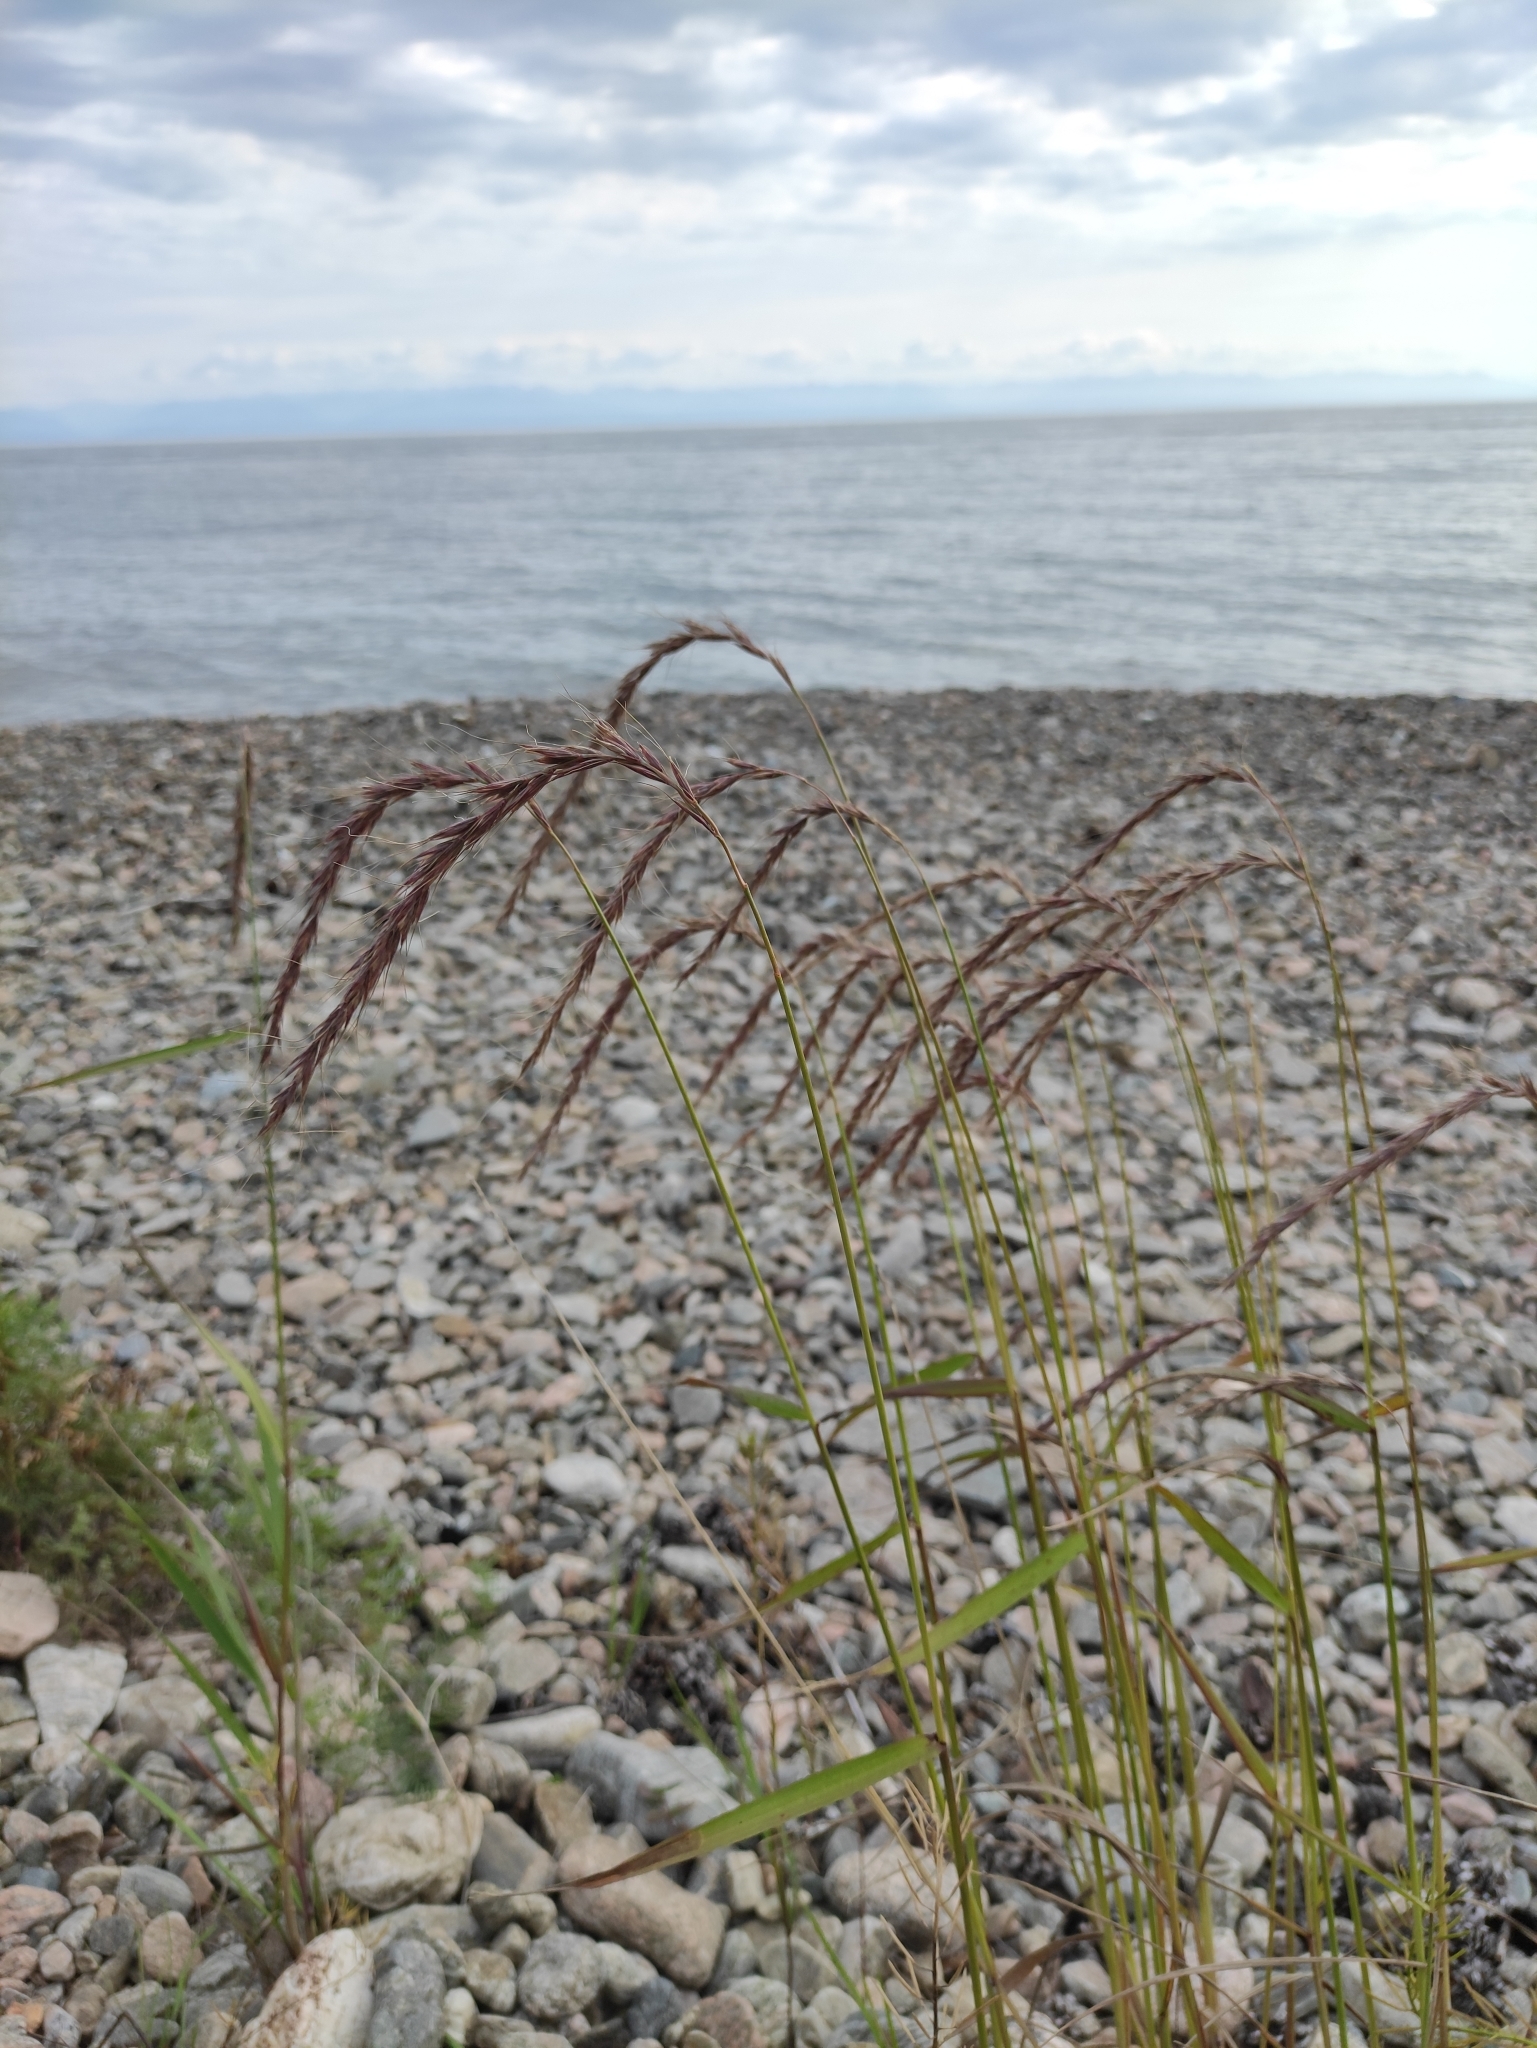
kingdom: Plantae
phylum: Tracheophyta
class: Liliopsida
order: Poales
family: Poaceae
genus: Elymus
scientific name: Elymus sibiricus
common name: Siberian wildrye
